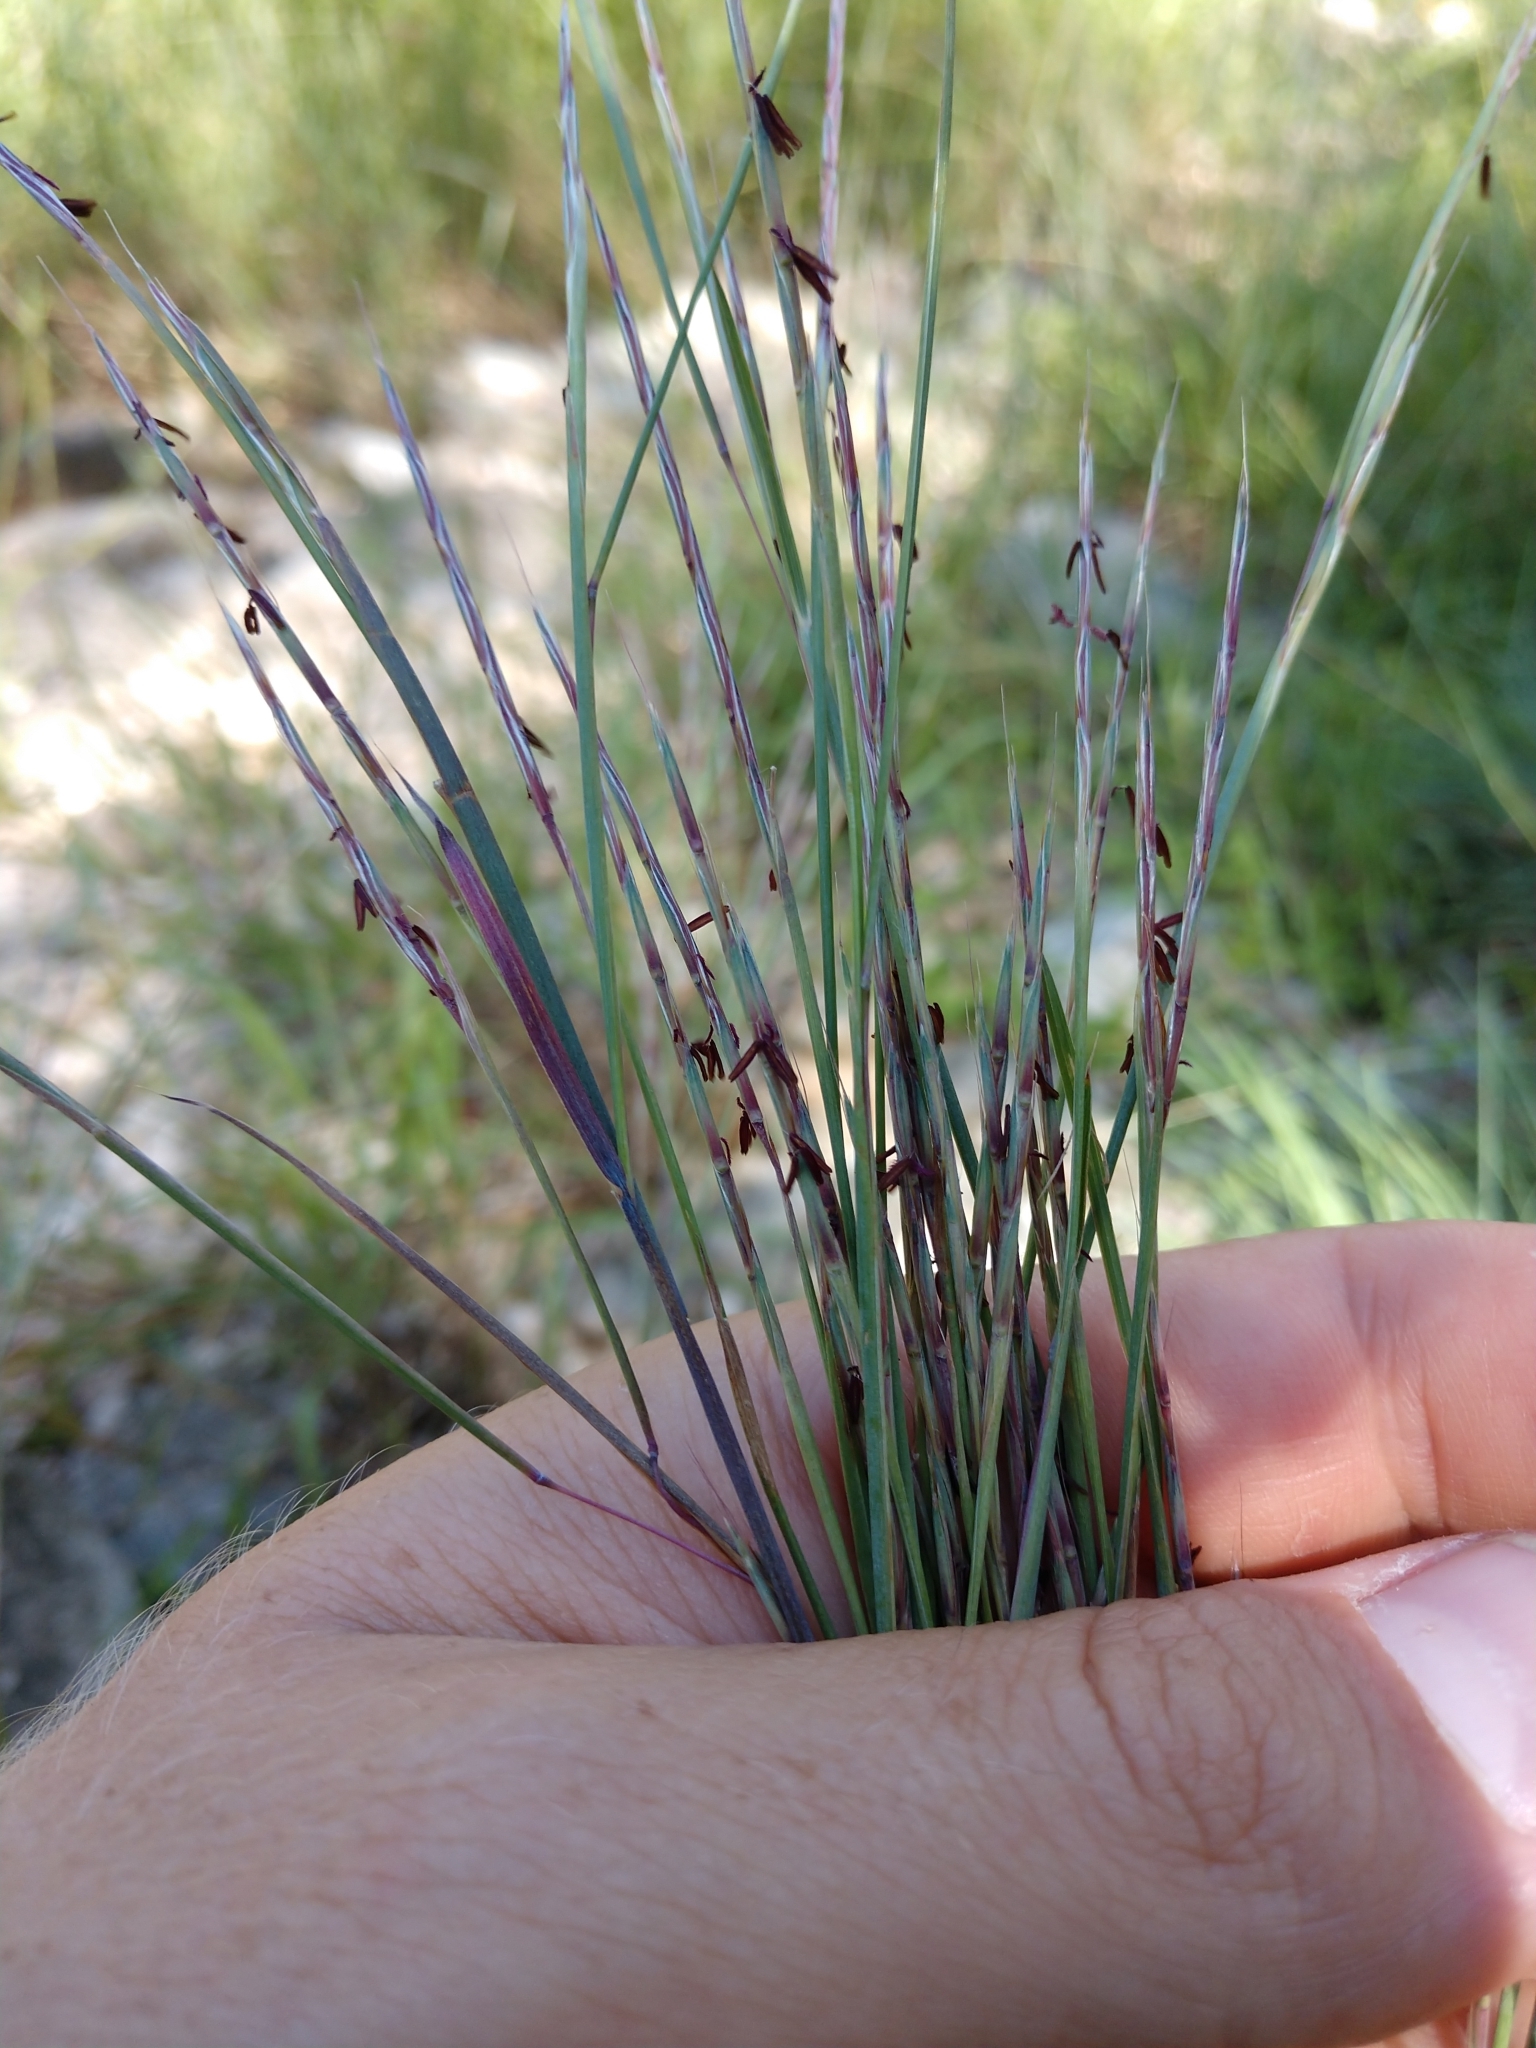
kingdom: Plantae
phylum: Tracheophyta
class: Liliopsida
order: Poales
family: Poaceae
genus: Schizachyrium
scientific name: Schizachyrium scoparium
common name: Little bluestem
